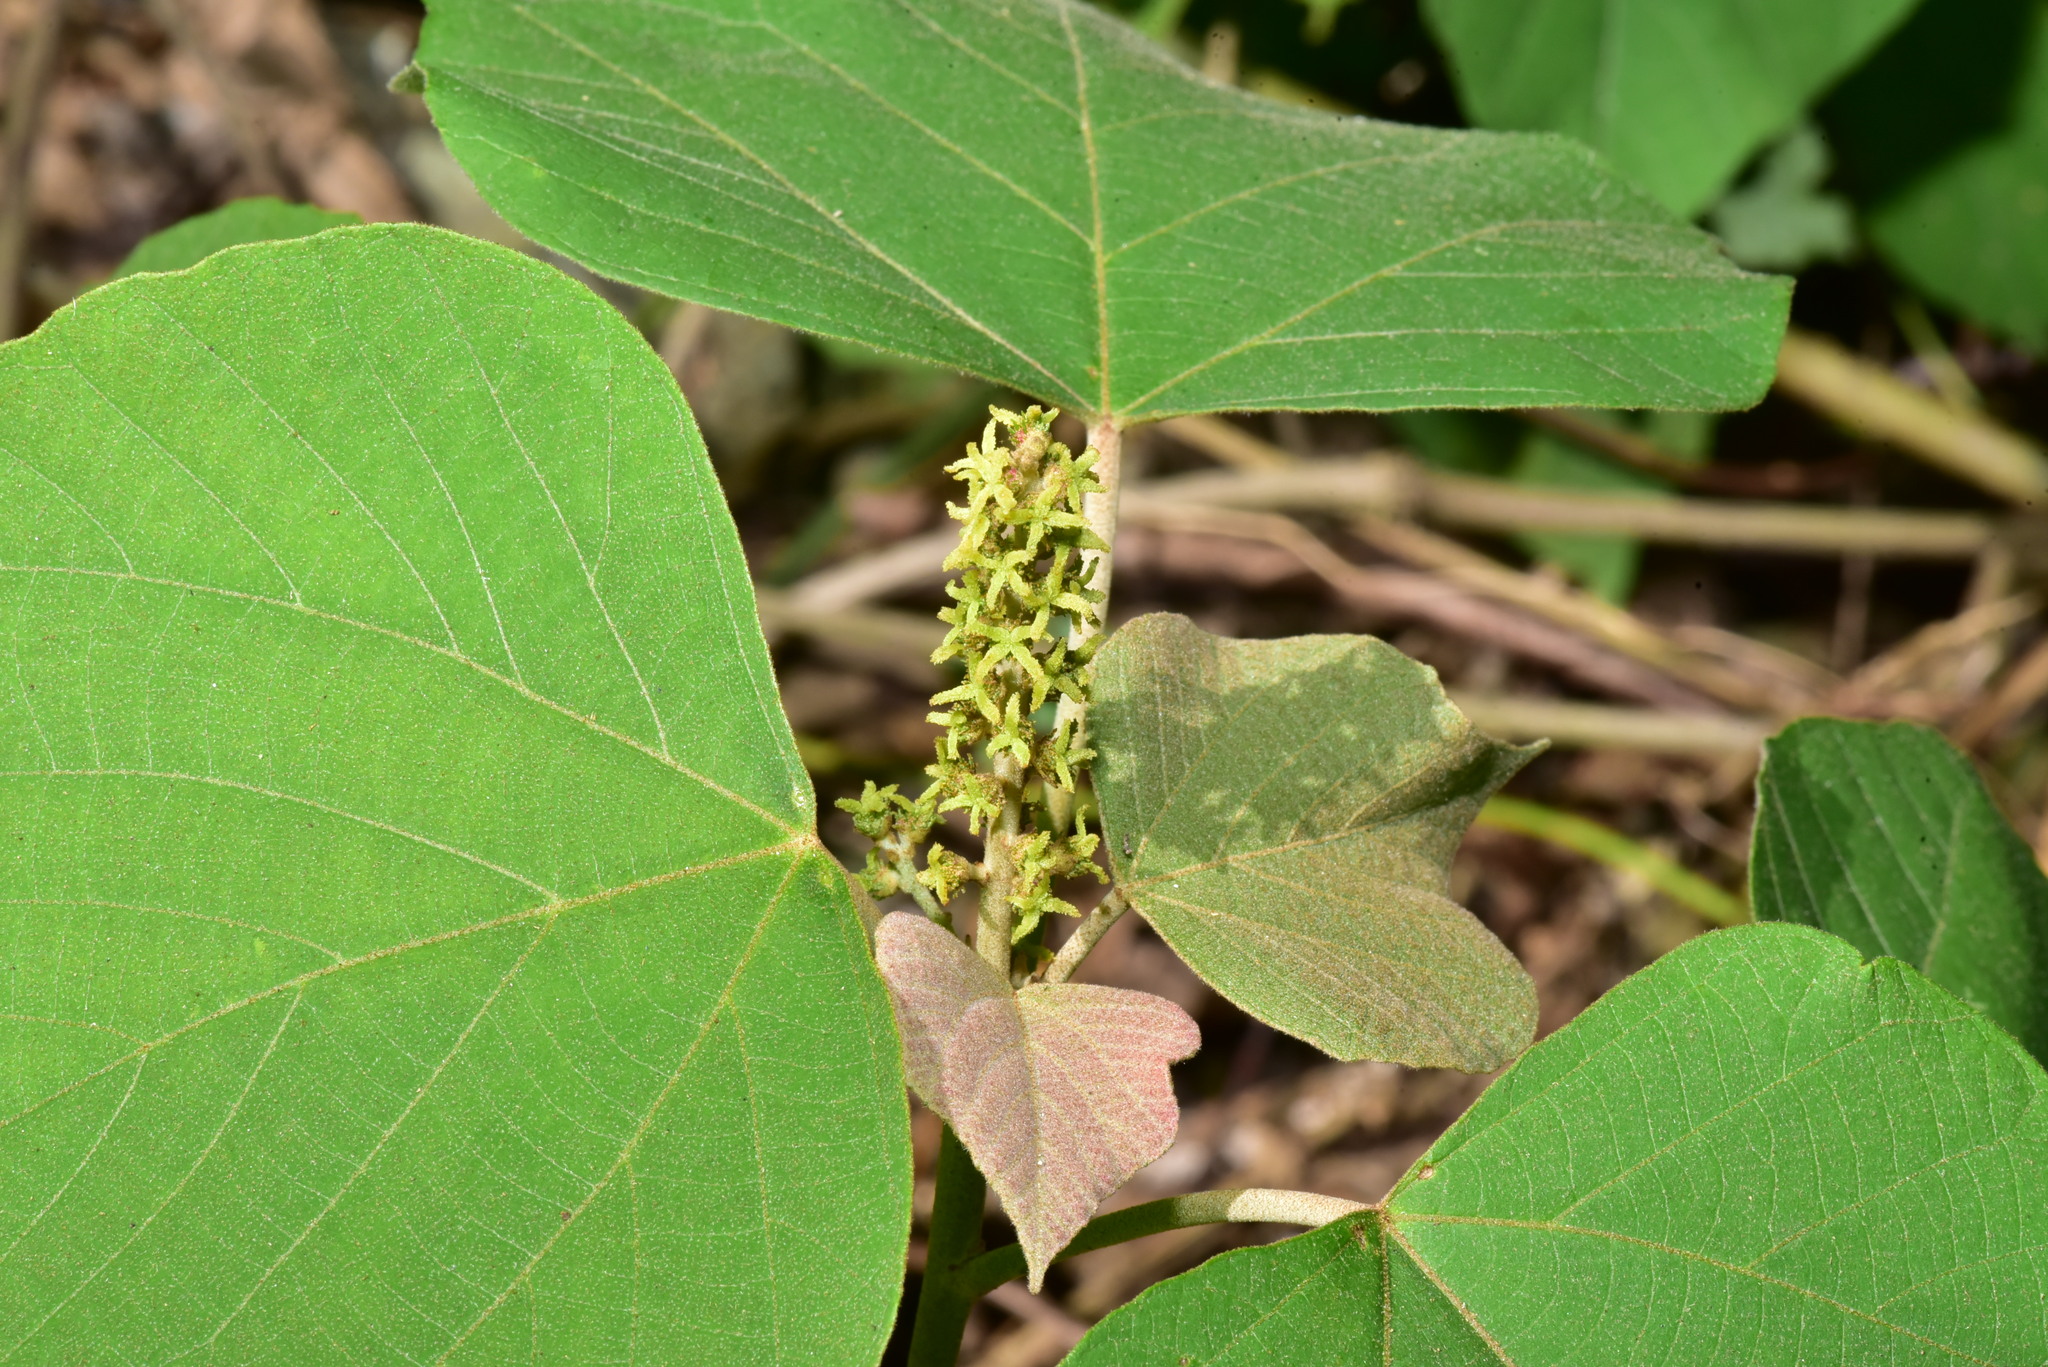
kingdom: Plantae
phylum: Tracheophyta
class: Magnoliopsida
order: Malpighiales
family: Euphorbiaceae
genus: Mallotus
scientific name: Mallotus japonicus
